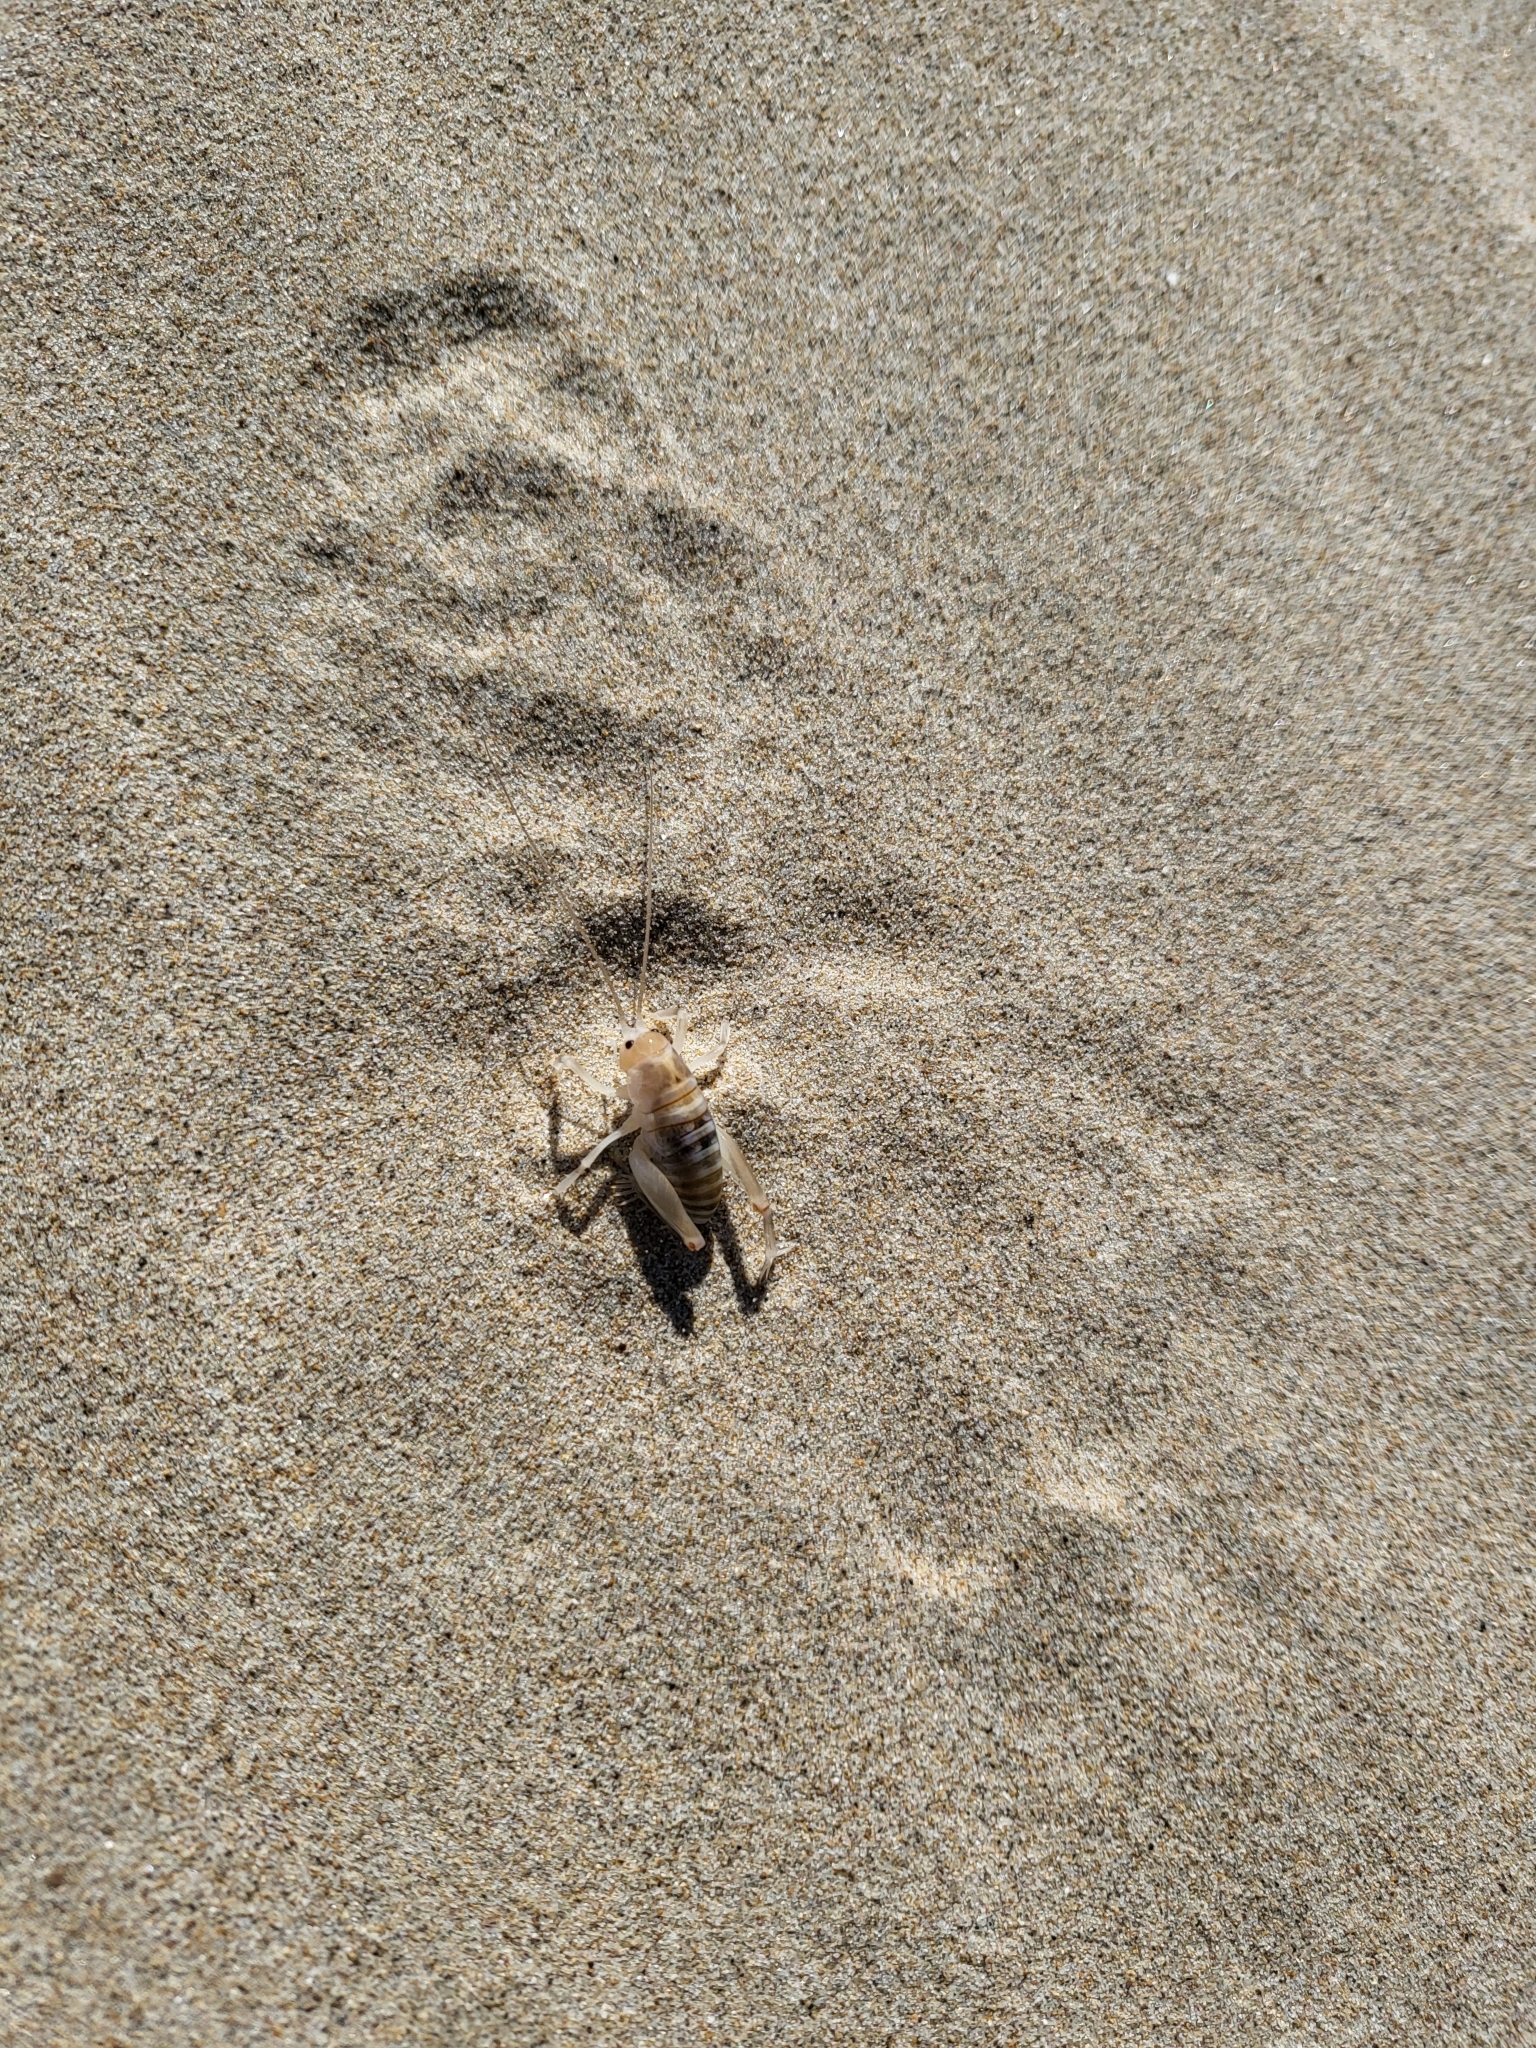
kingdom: Animalia
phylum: Arthropoda
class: Insecta
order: Orthoptera
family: Rhaphidophoridae
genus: Rhachocnemis
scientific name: Rhachocnemis validus
